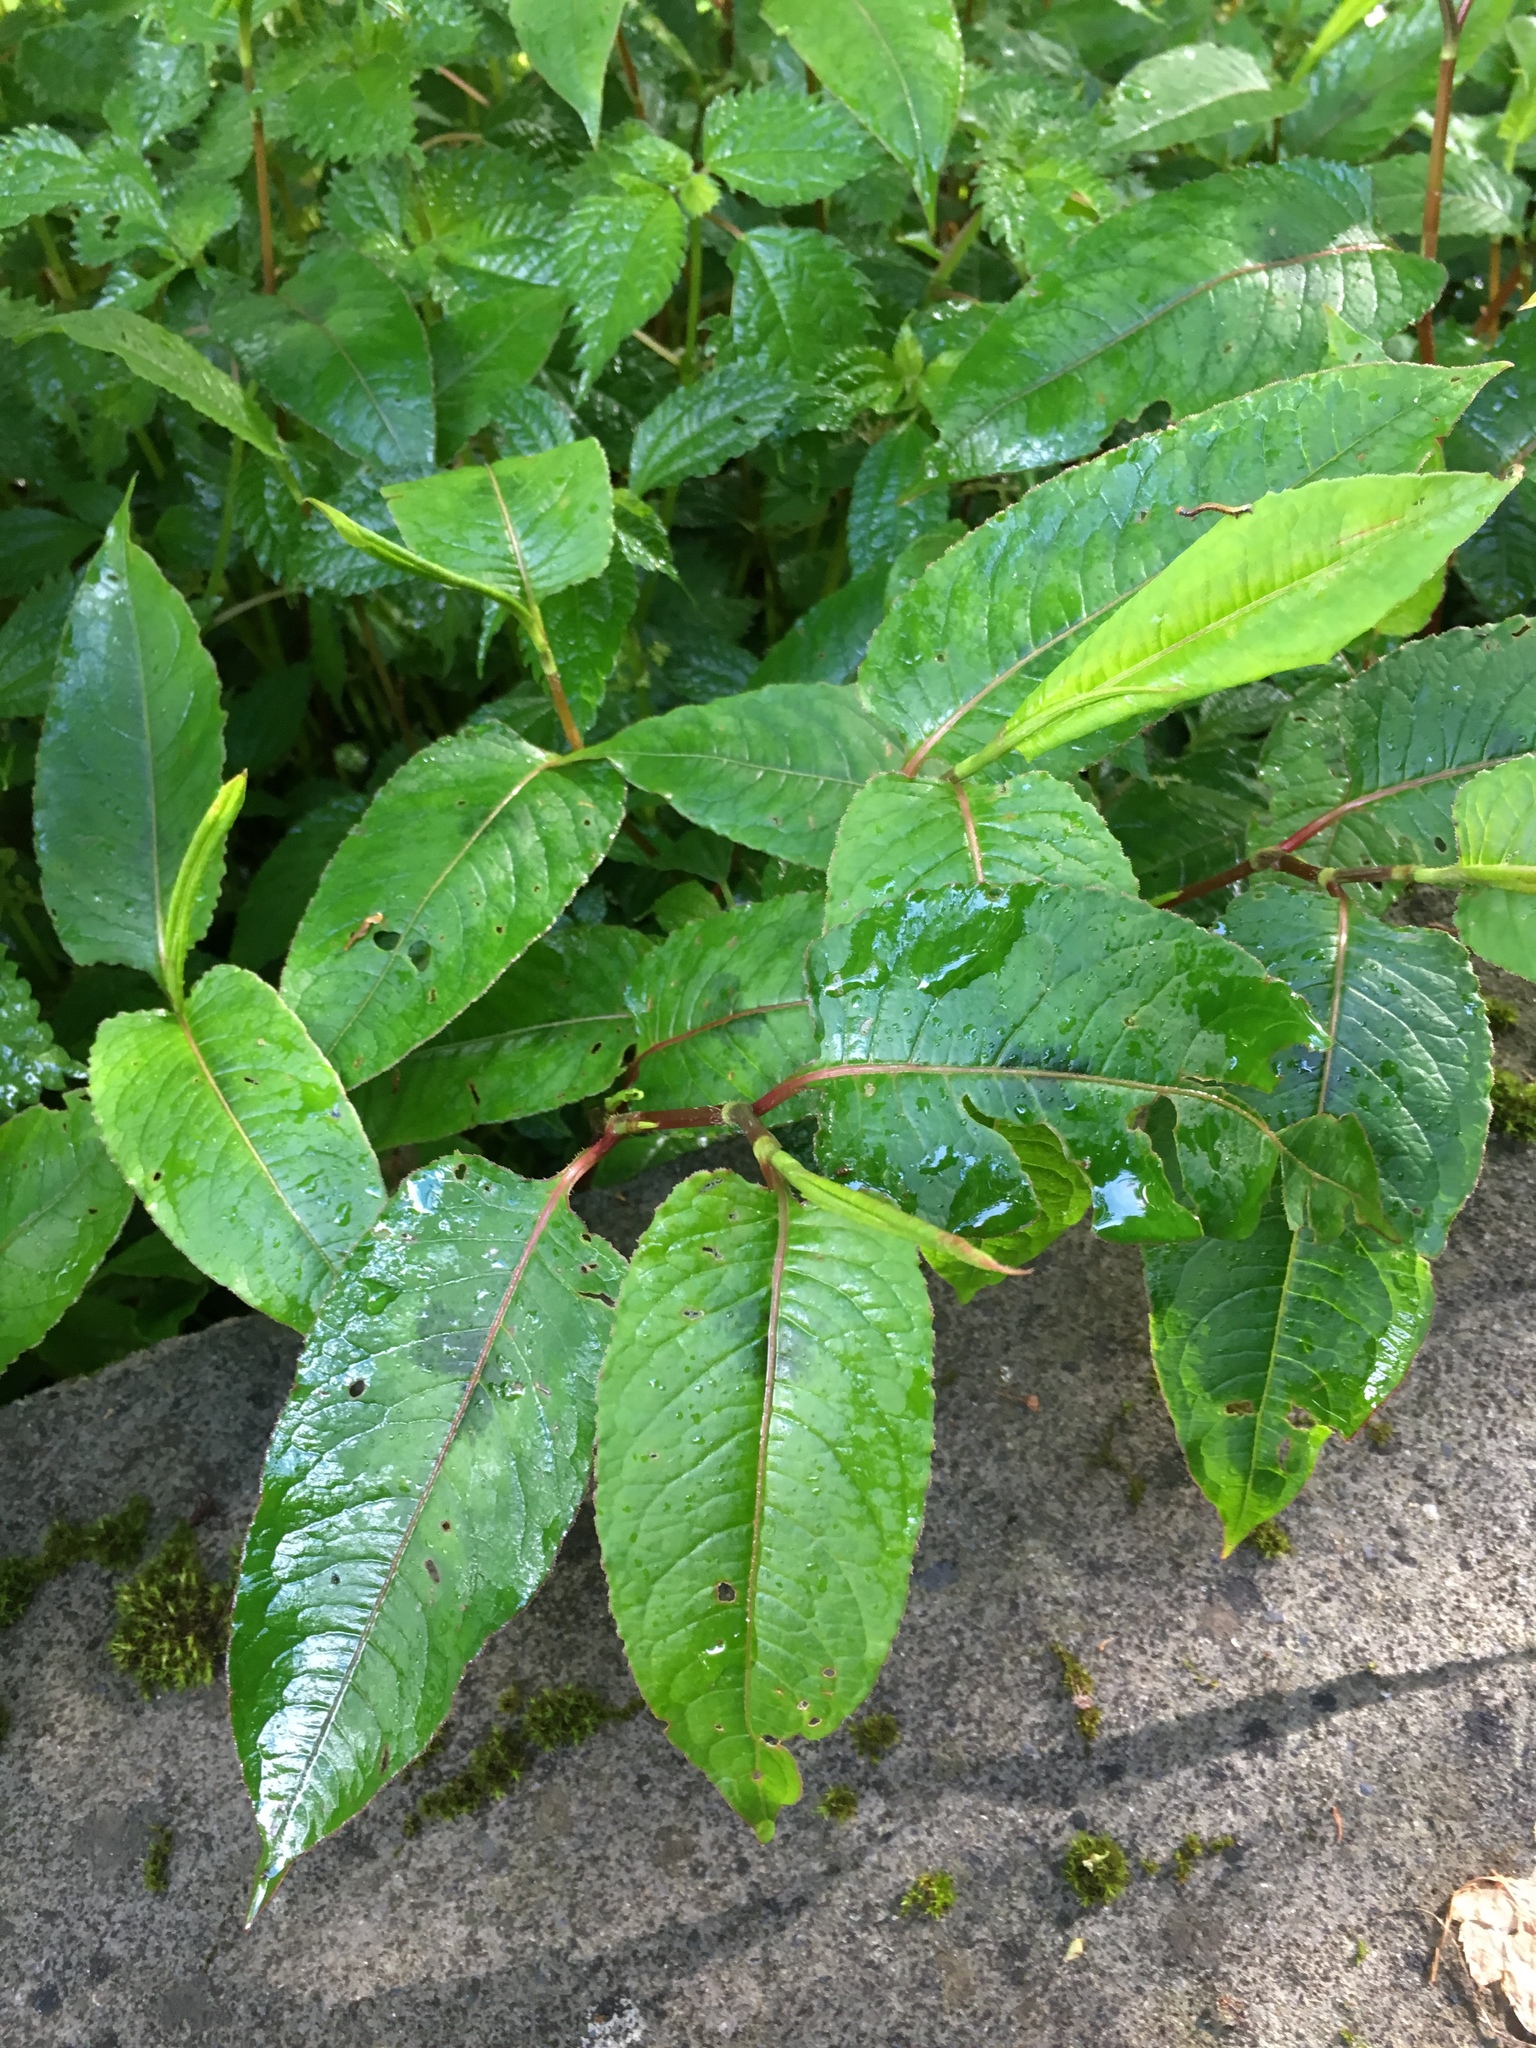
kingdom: Plantae
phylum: Tracheophyta
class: Magnoliopsida
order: Caryophyllales
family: Polygonaceae
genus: Persicaria
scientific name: Persicaria chinensis
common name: Chinese knotweed
